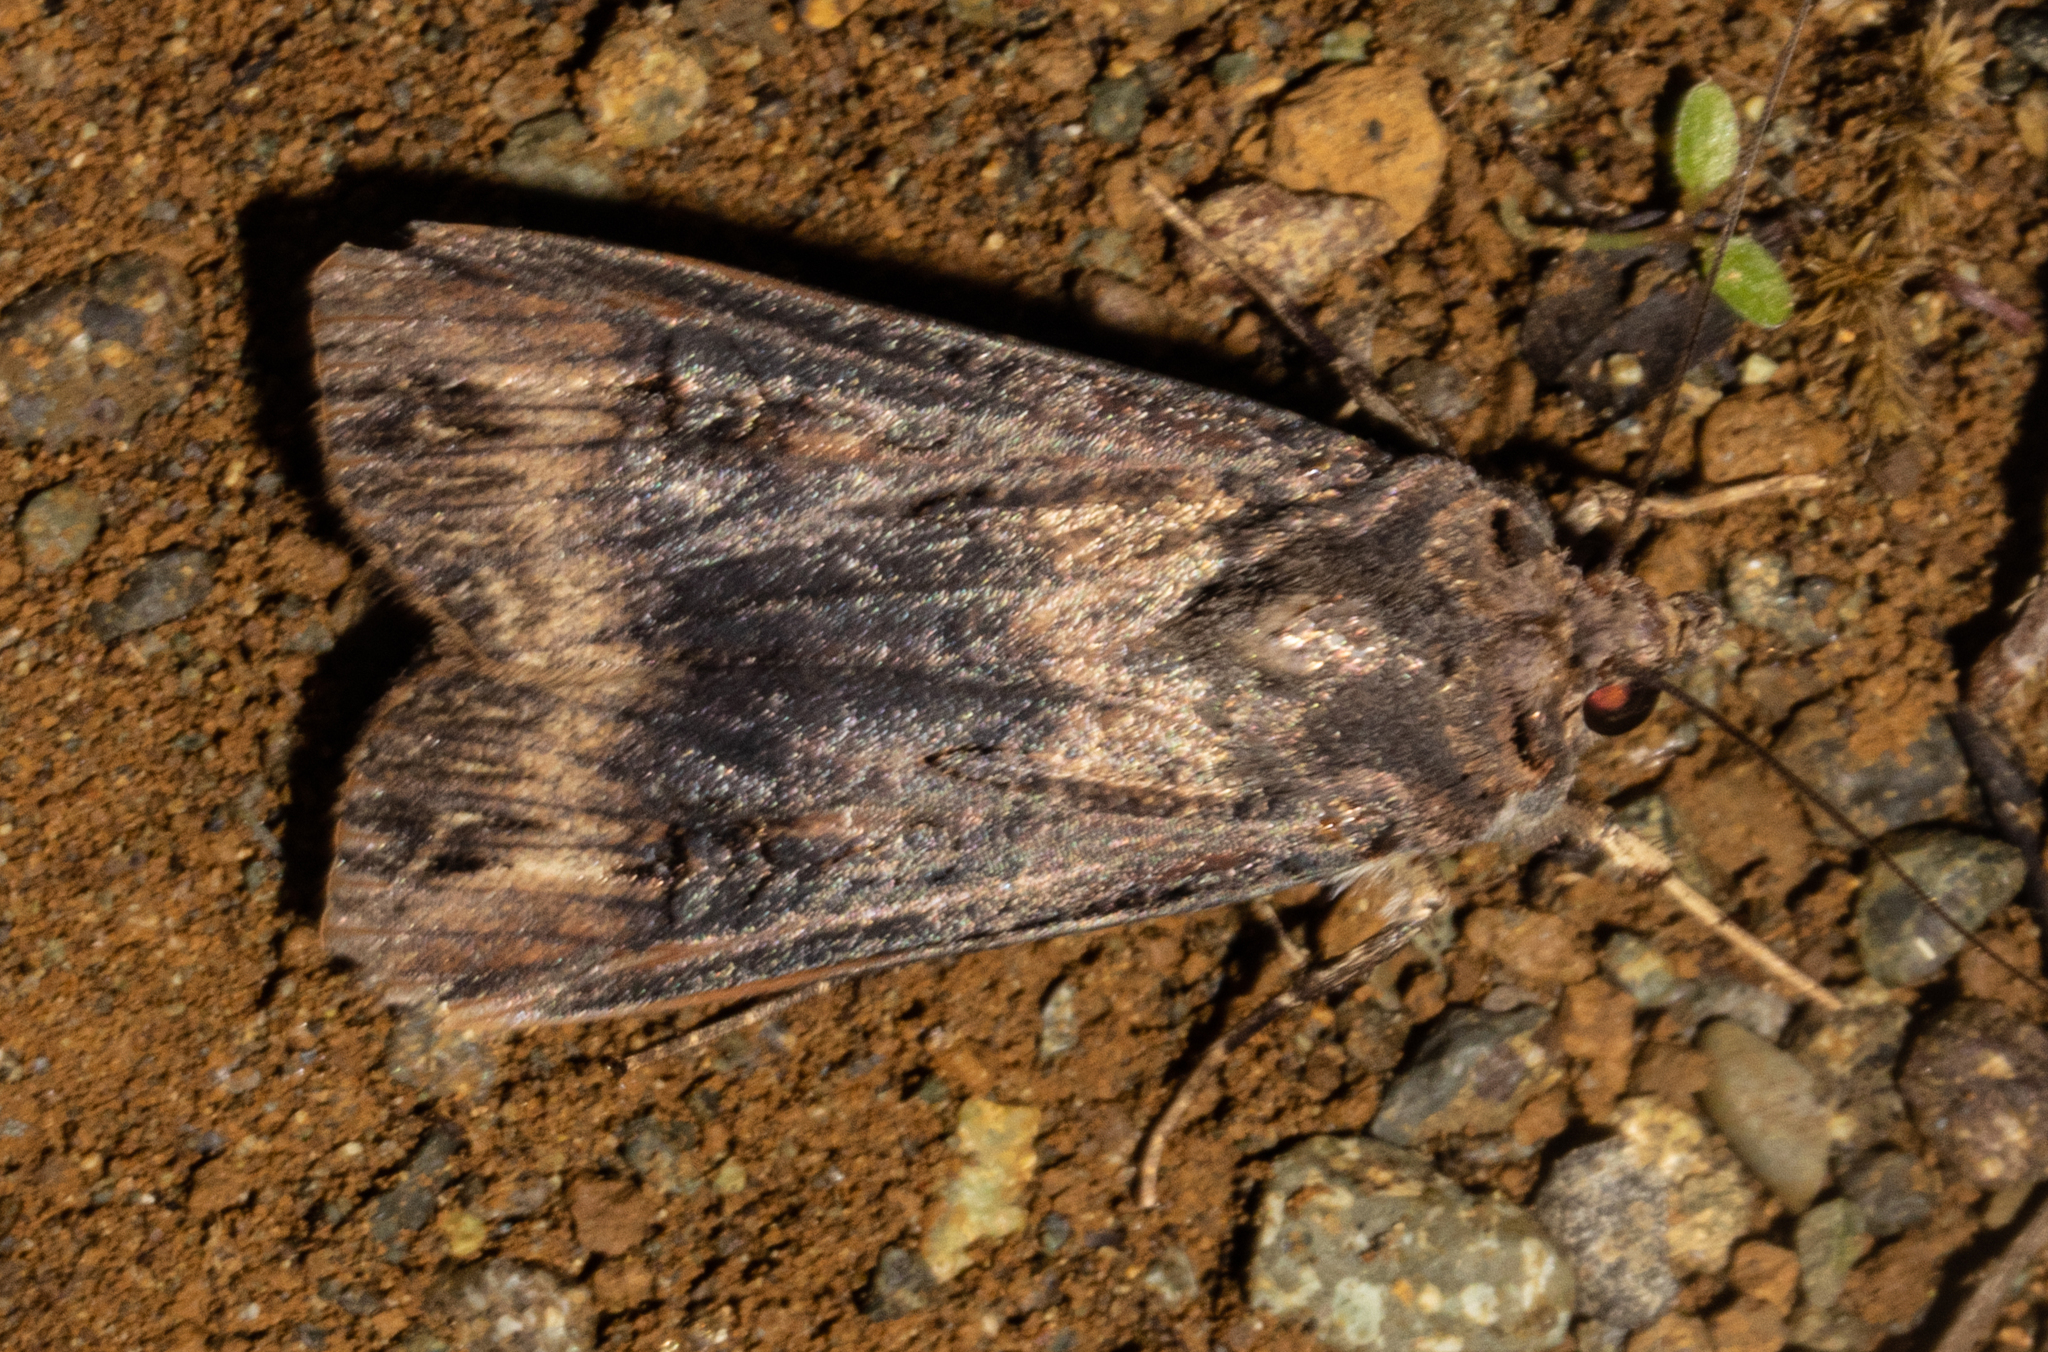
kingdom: Animalia
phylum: Arthropoda
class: Insecta
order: Lepidoptera
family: Noctuidae
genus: Agrotis
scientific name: Agrotis ipsilon
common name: Dark sword-grass
